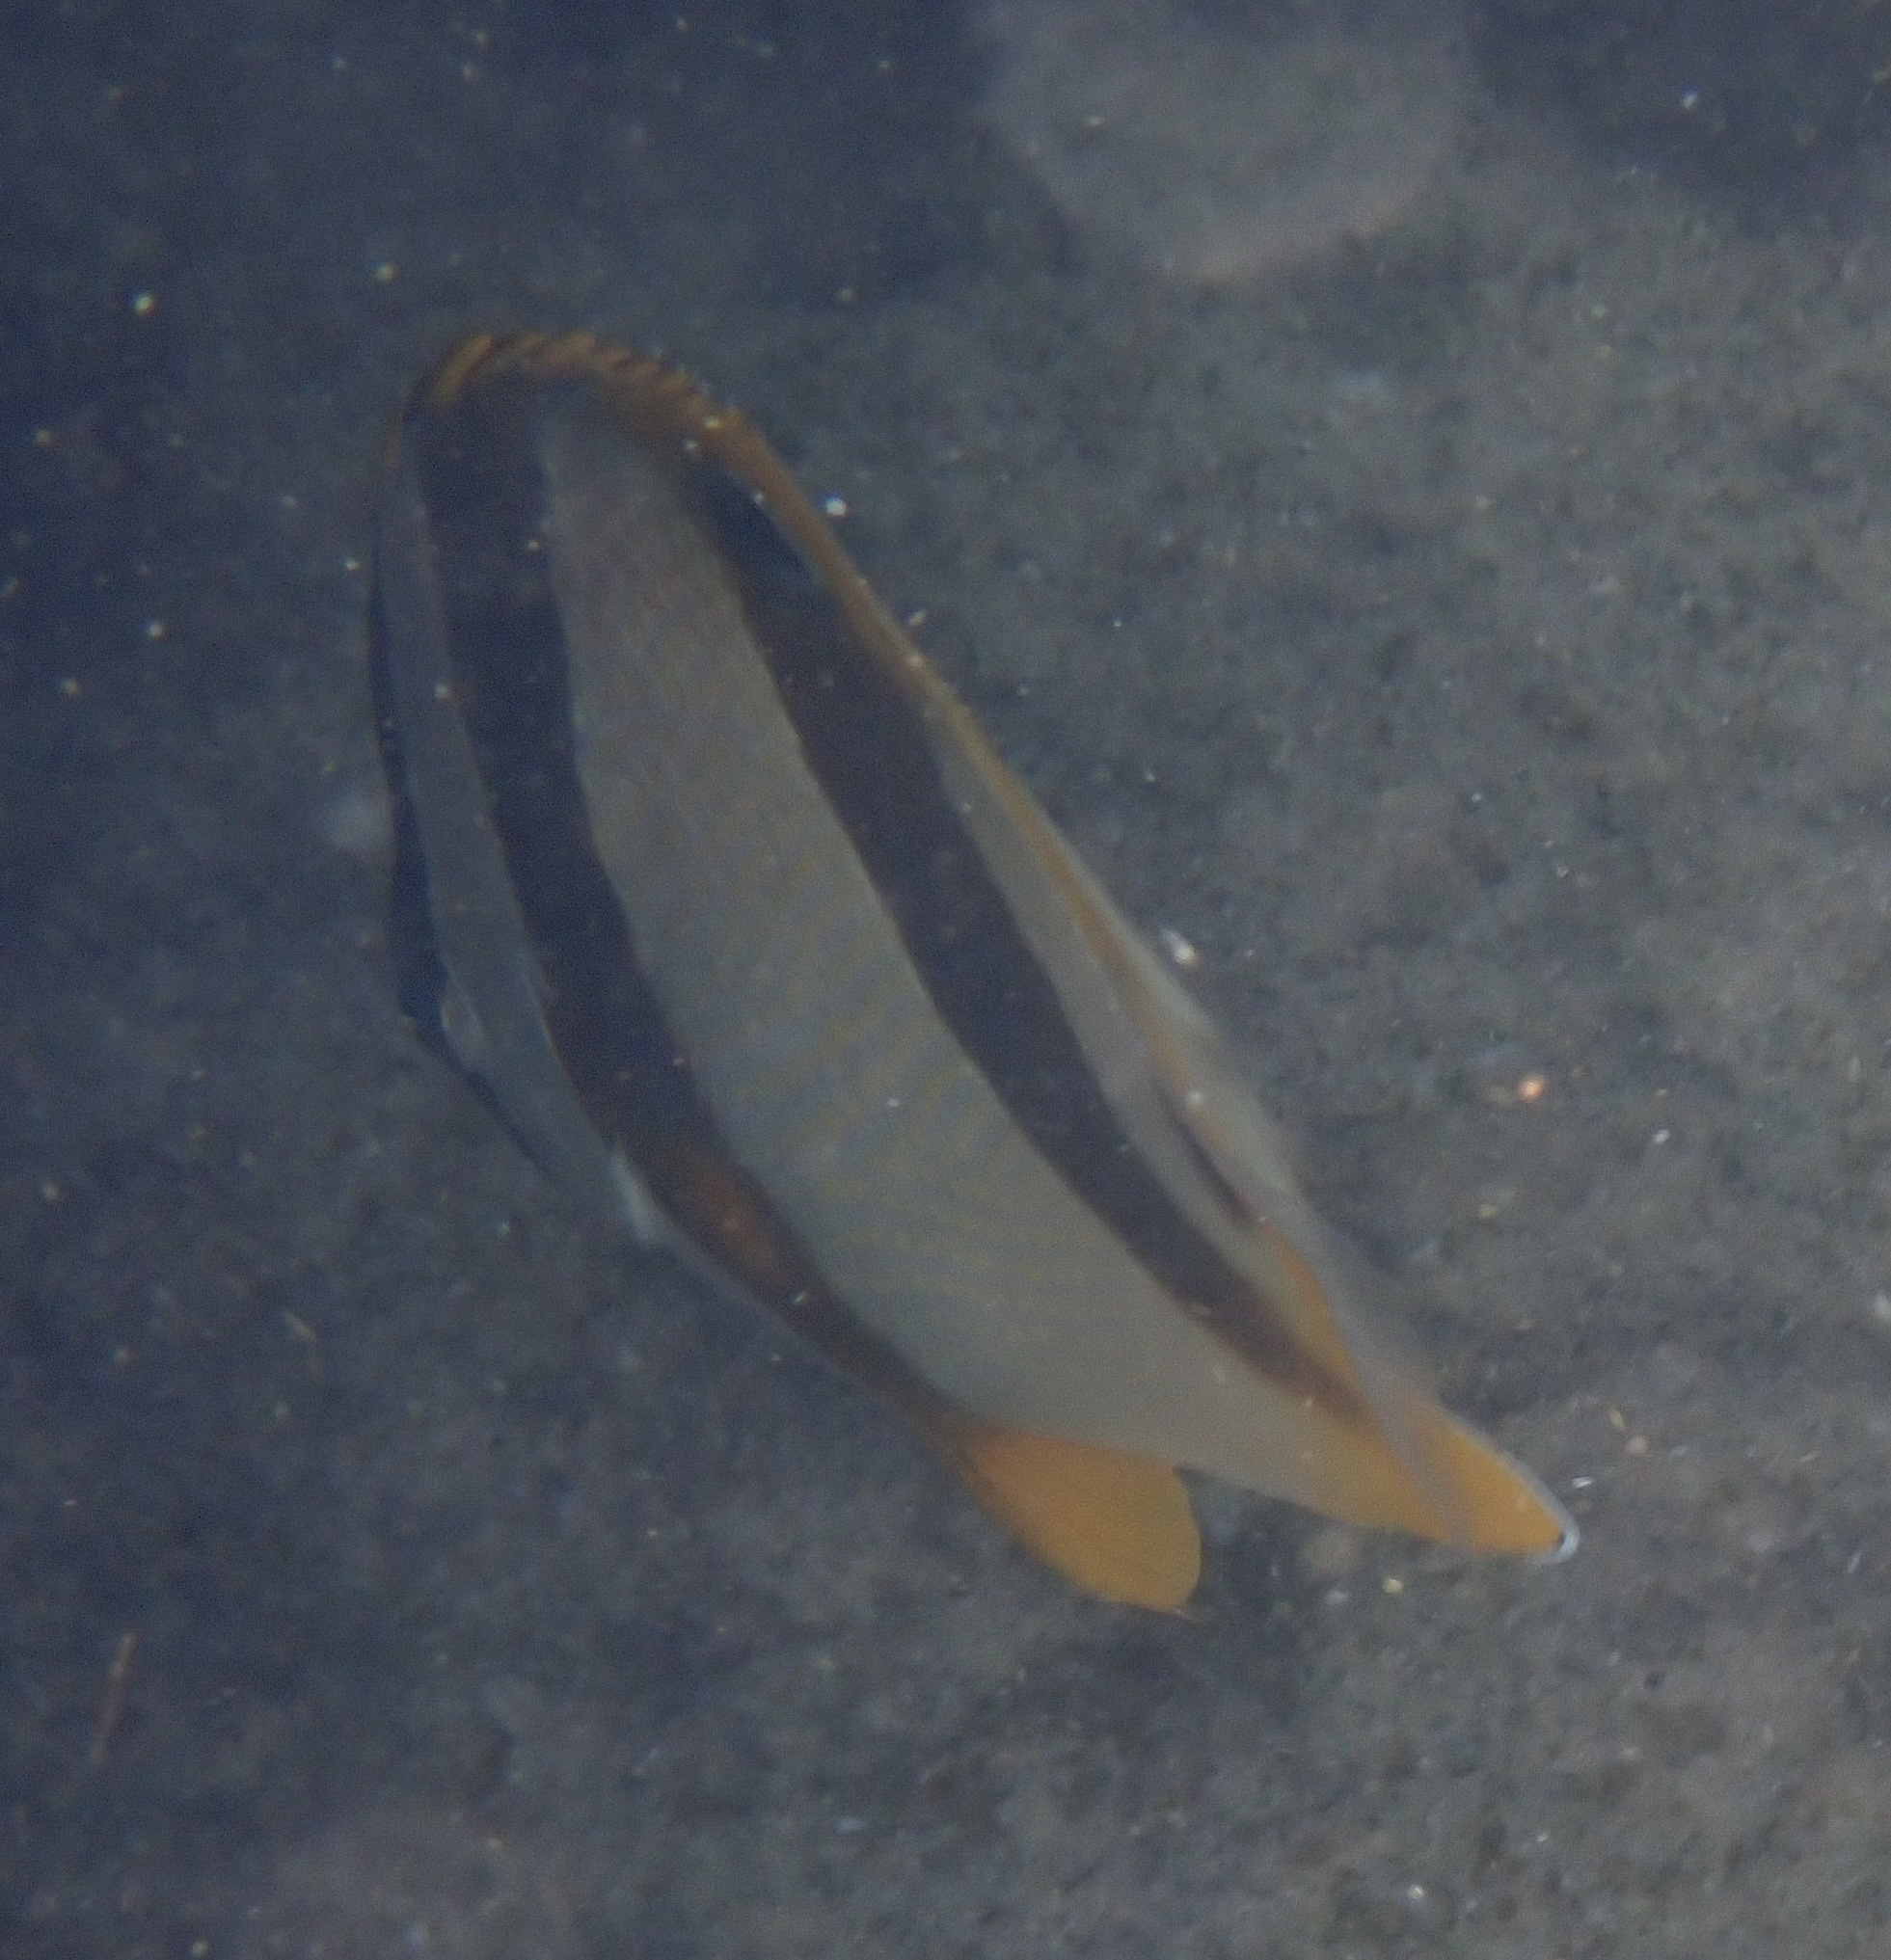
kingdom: Animalia
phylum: Chordata
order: Perciformes
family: Chaetodontidae
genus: Chaetodon
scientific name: Chaetodon marleyi
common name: Doubledash butterflyfish
